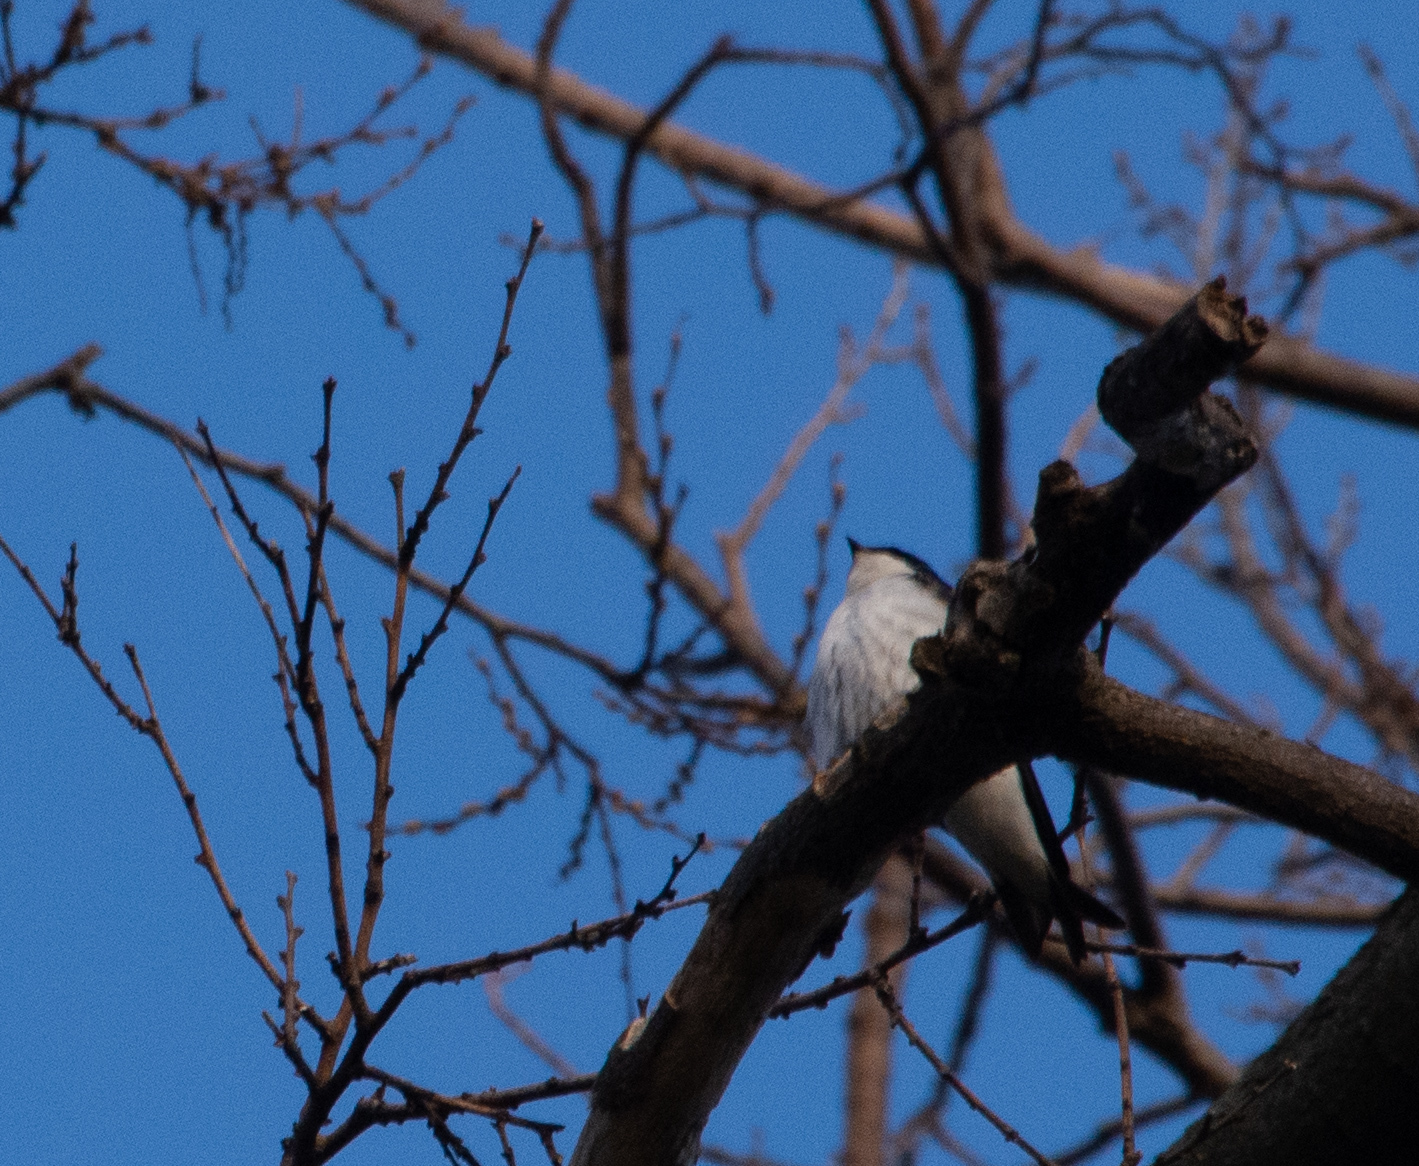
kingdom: Animalia
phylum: Chordata
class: Aves
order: Passeriformes
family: Hirundinidae
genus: Tachycineta
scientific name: Tachycineta bicolor
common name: Tree swallow
